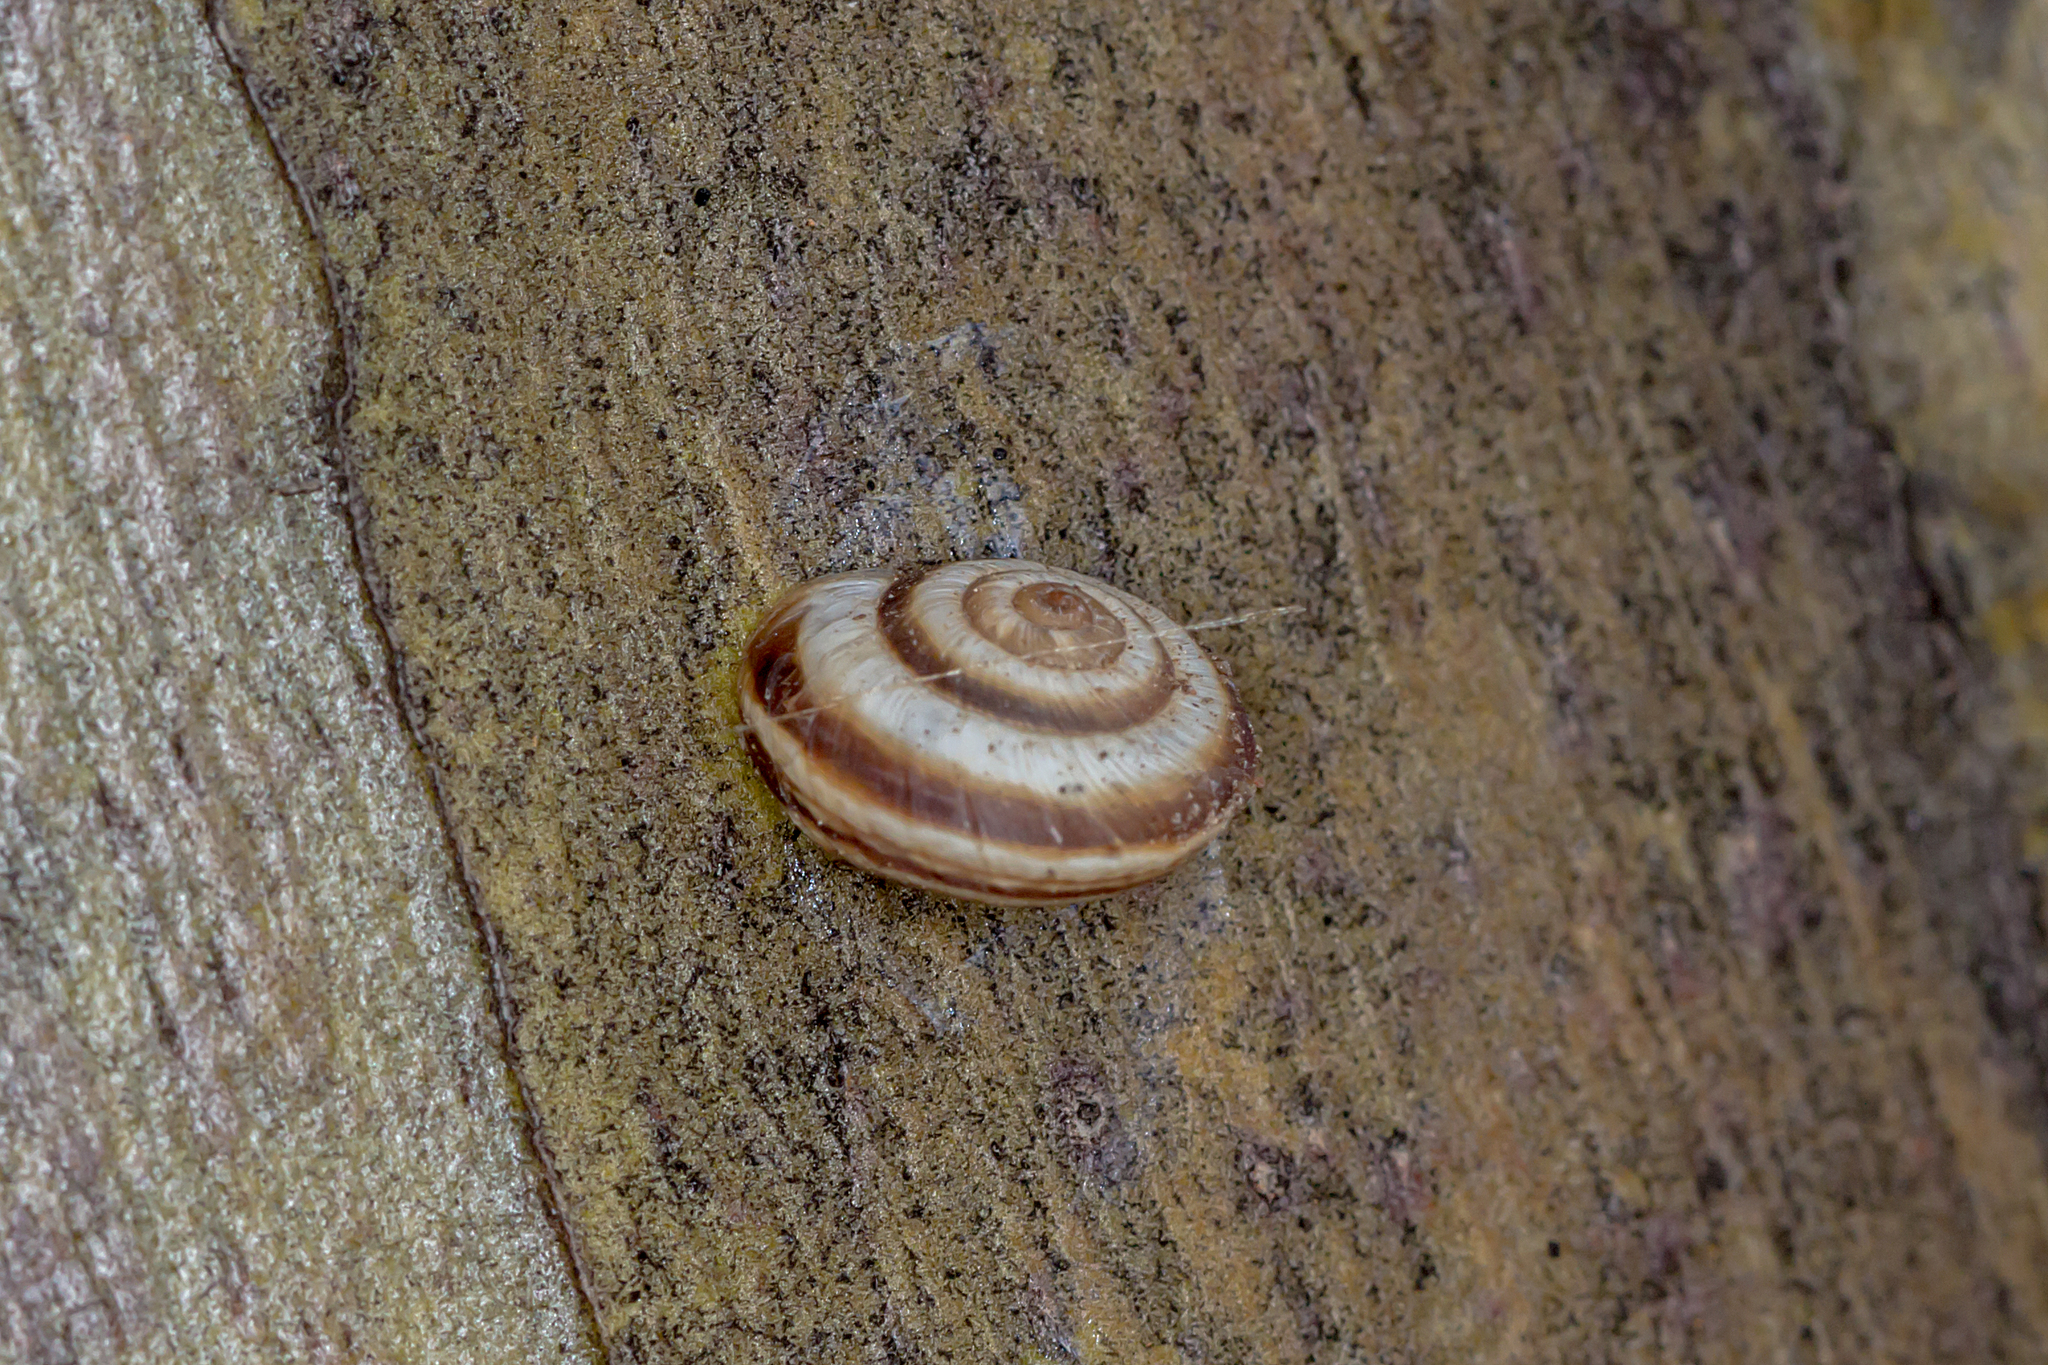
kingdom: Animalia
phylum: Mollusca
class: Gastropoda
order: Stylommatophora
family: Geomitridae
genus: Cernuella
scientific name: Cernuella virgata
